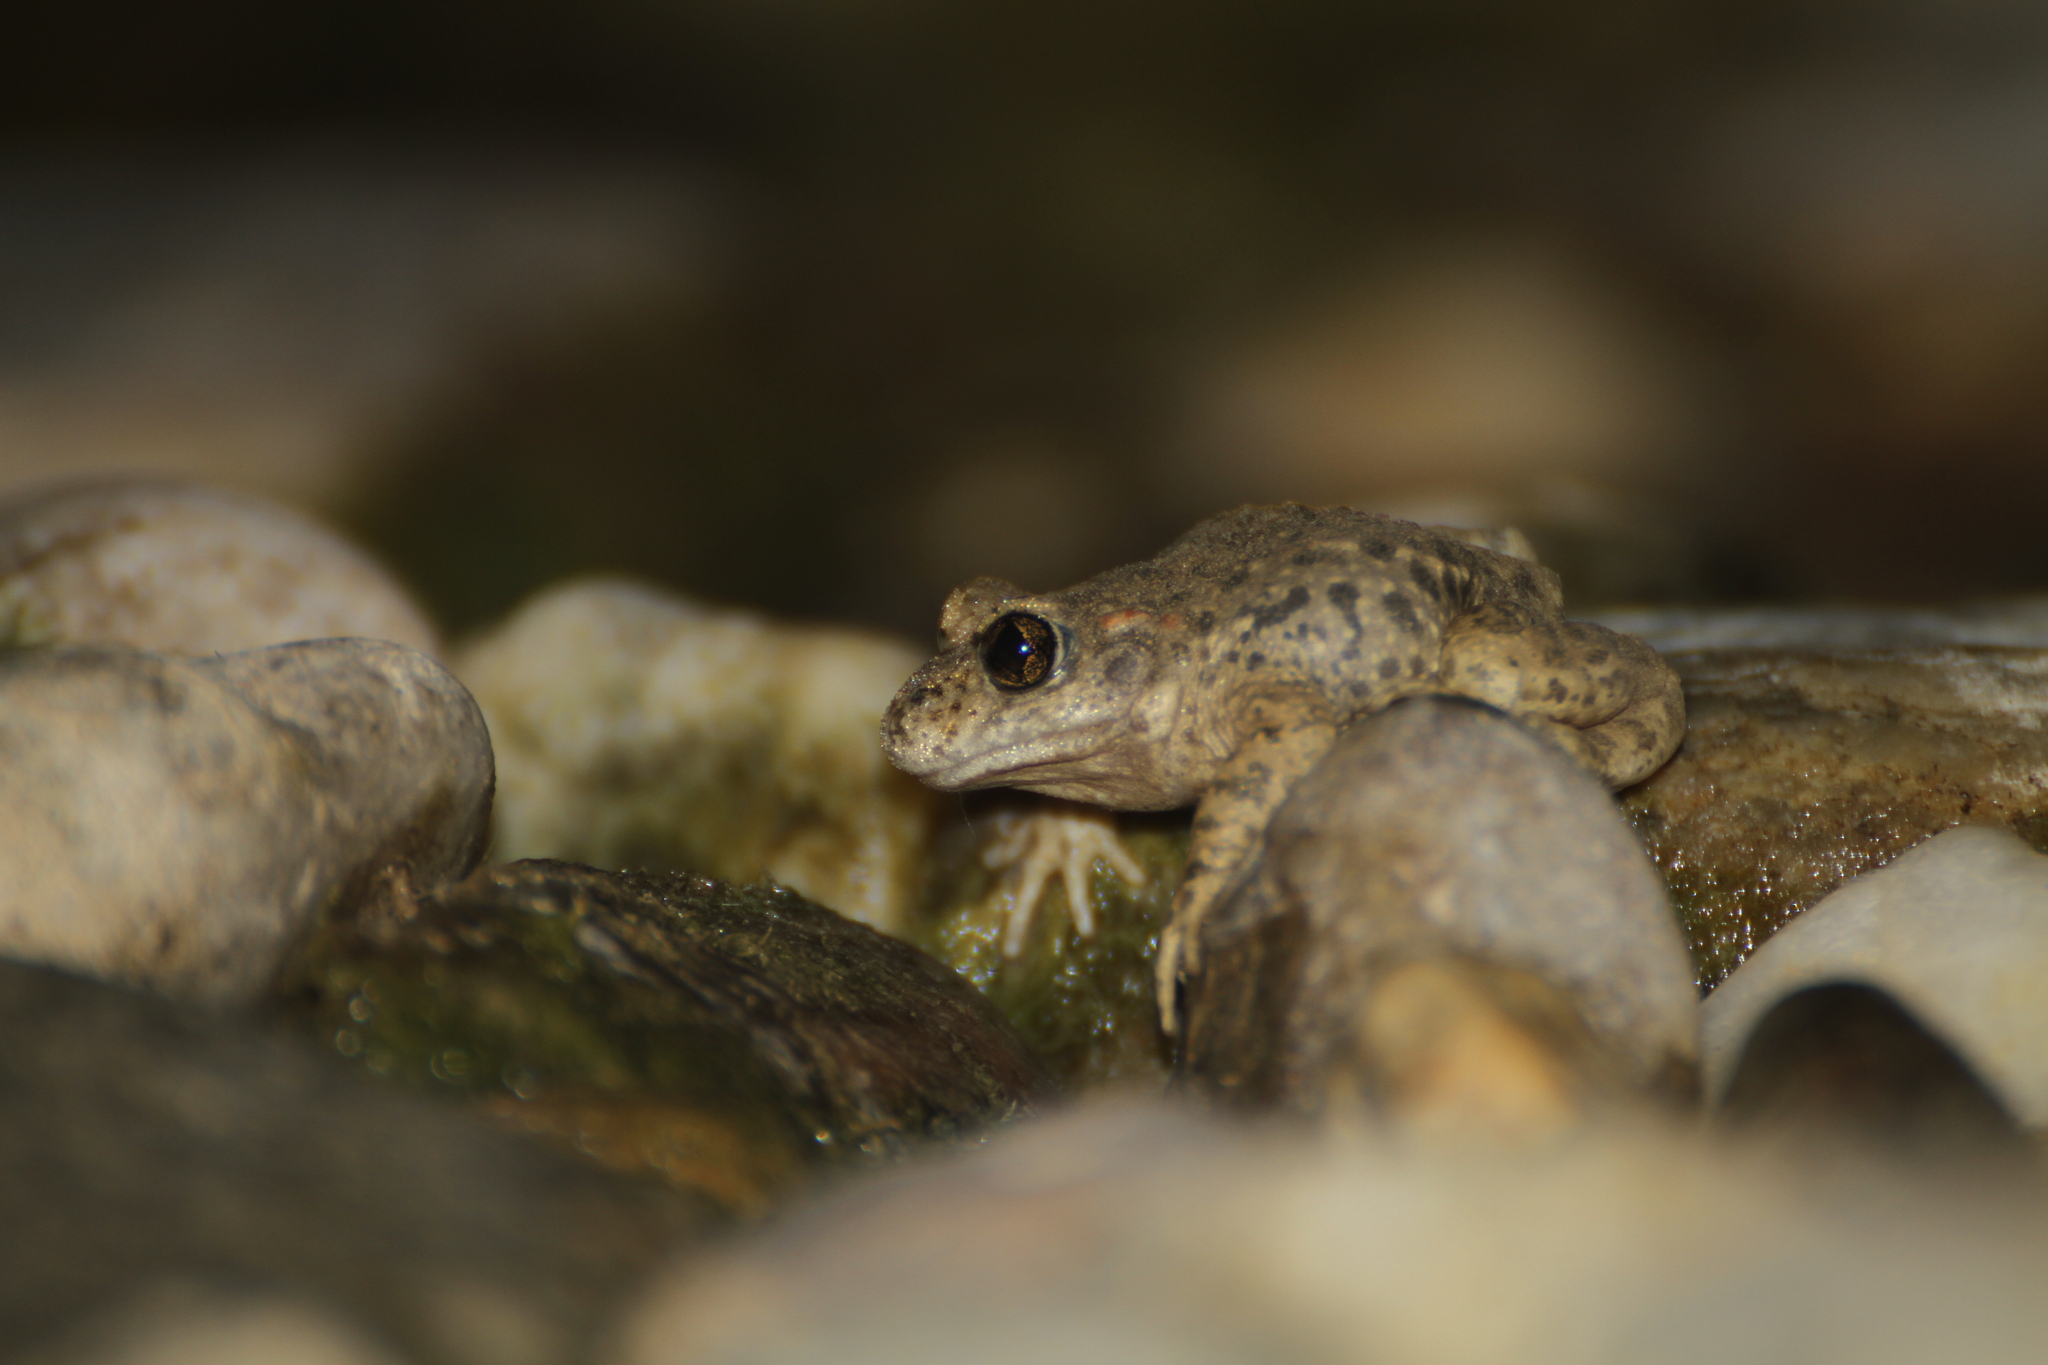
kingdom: Animalia
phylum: Chordata
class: Amphibia
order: Anura
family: Alytidae
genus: Alytes
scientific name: Alytes obstetricans
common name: Midwife toad
